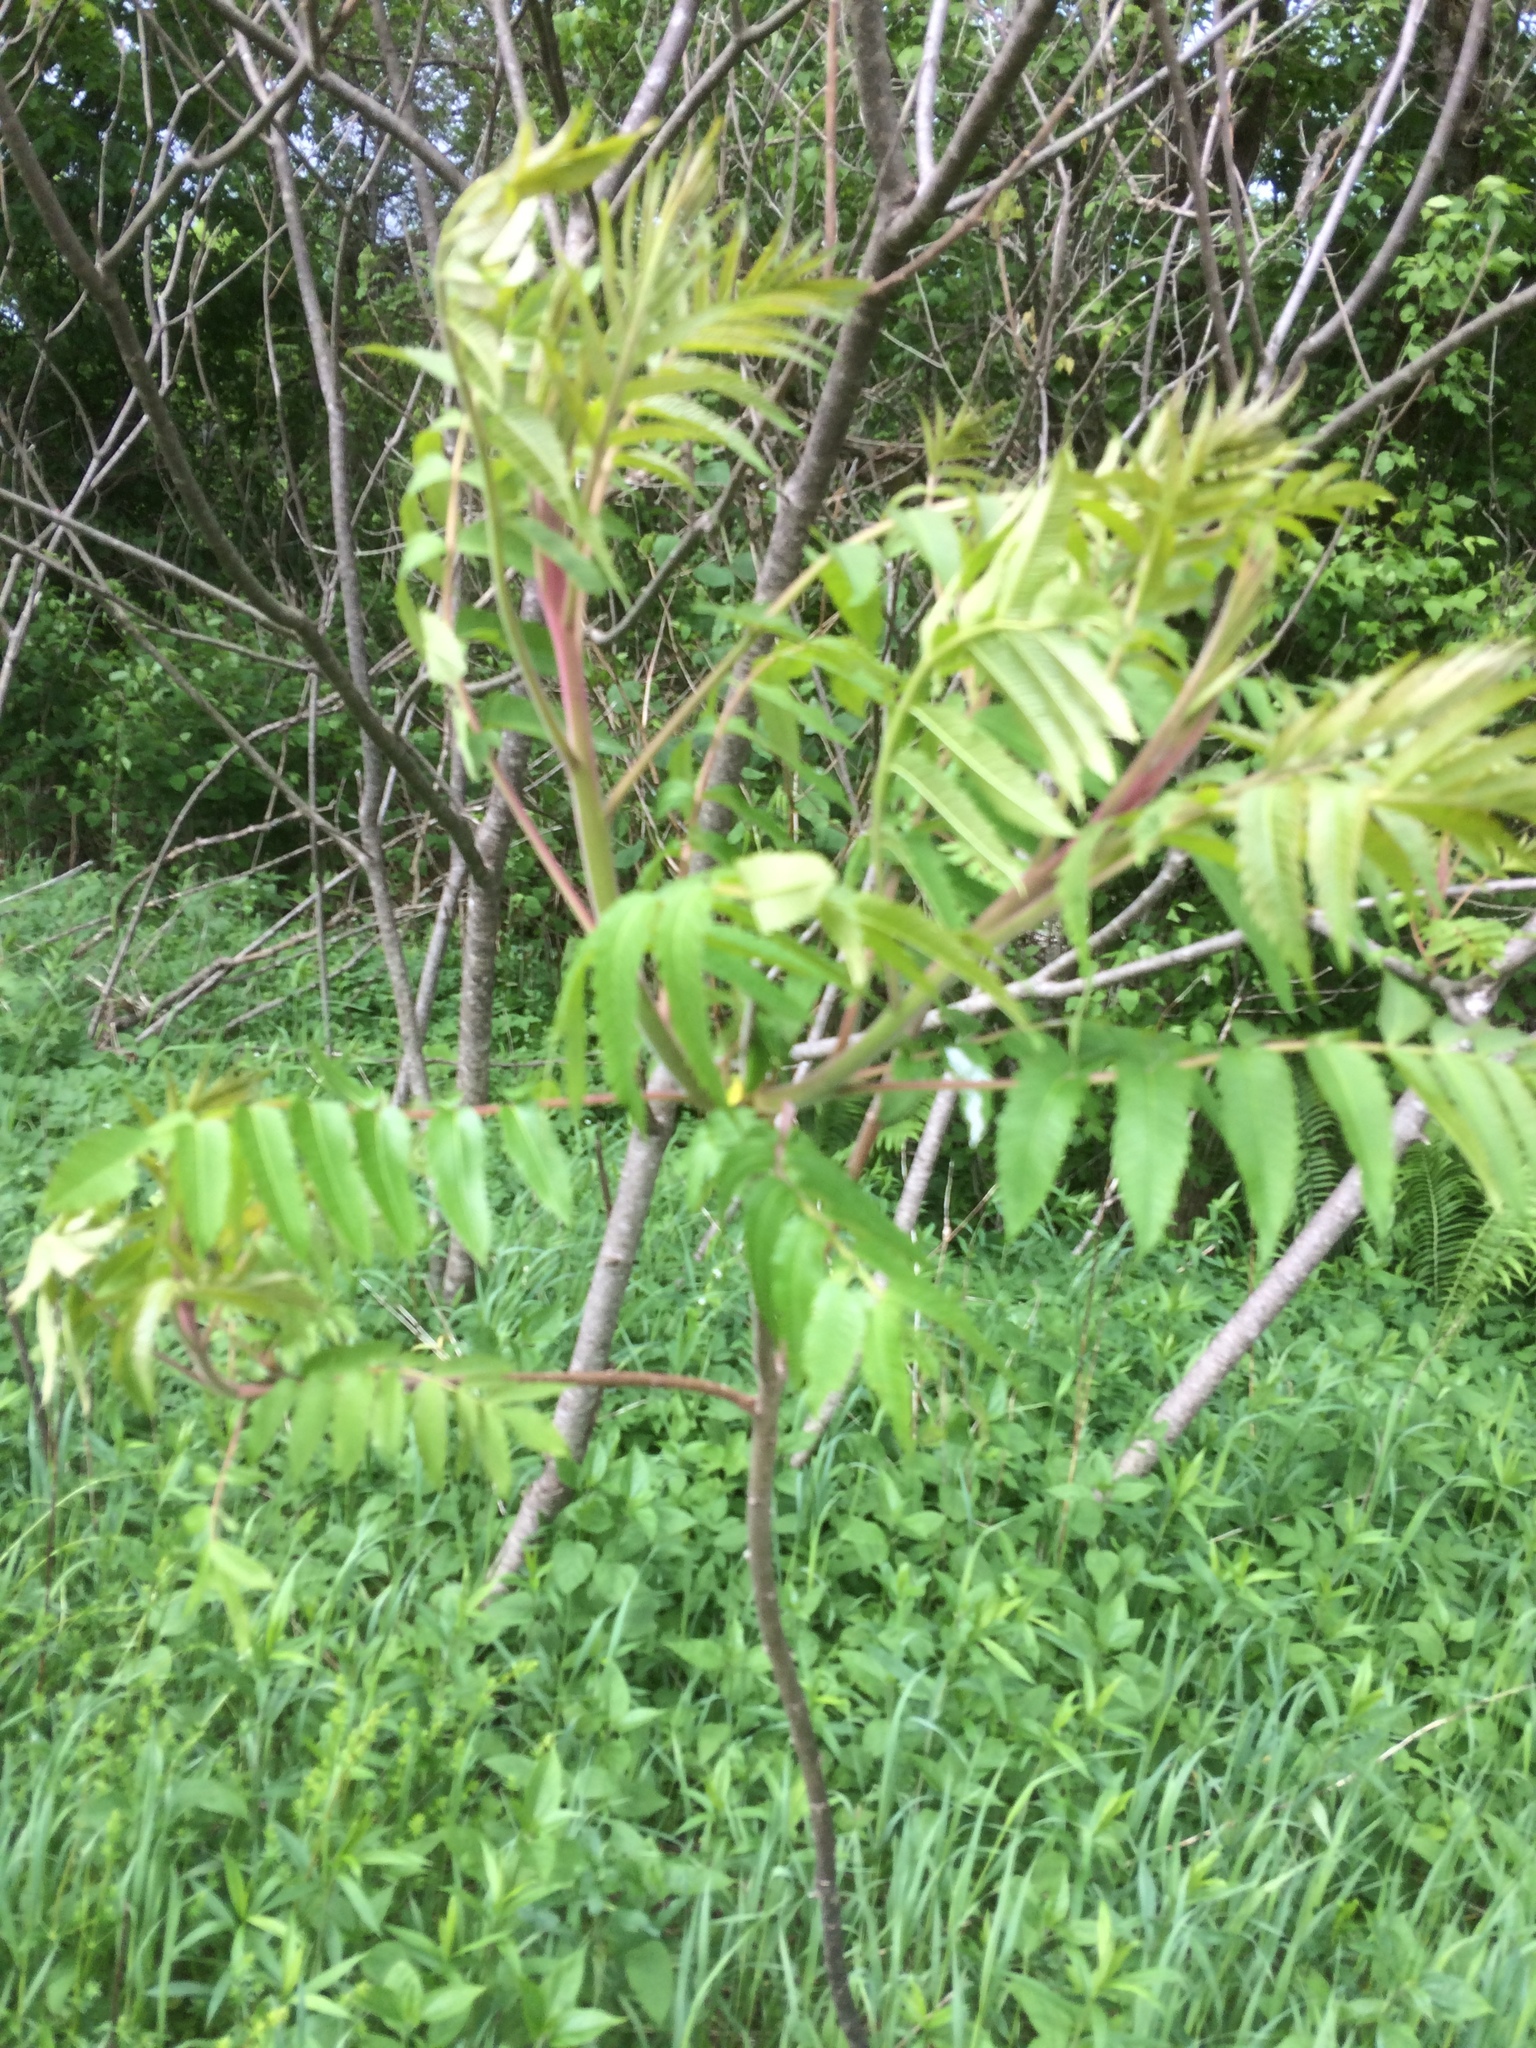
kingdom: Plantae
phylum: Tracheophyta
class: Magnoliopsida
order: Sapindales
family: Anacardiaceae
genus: Rhus
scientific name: Rhus typhina
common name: Staghorn sumac
